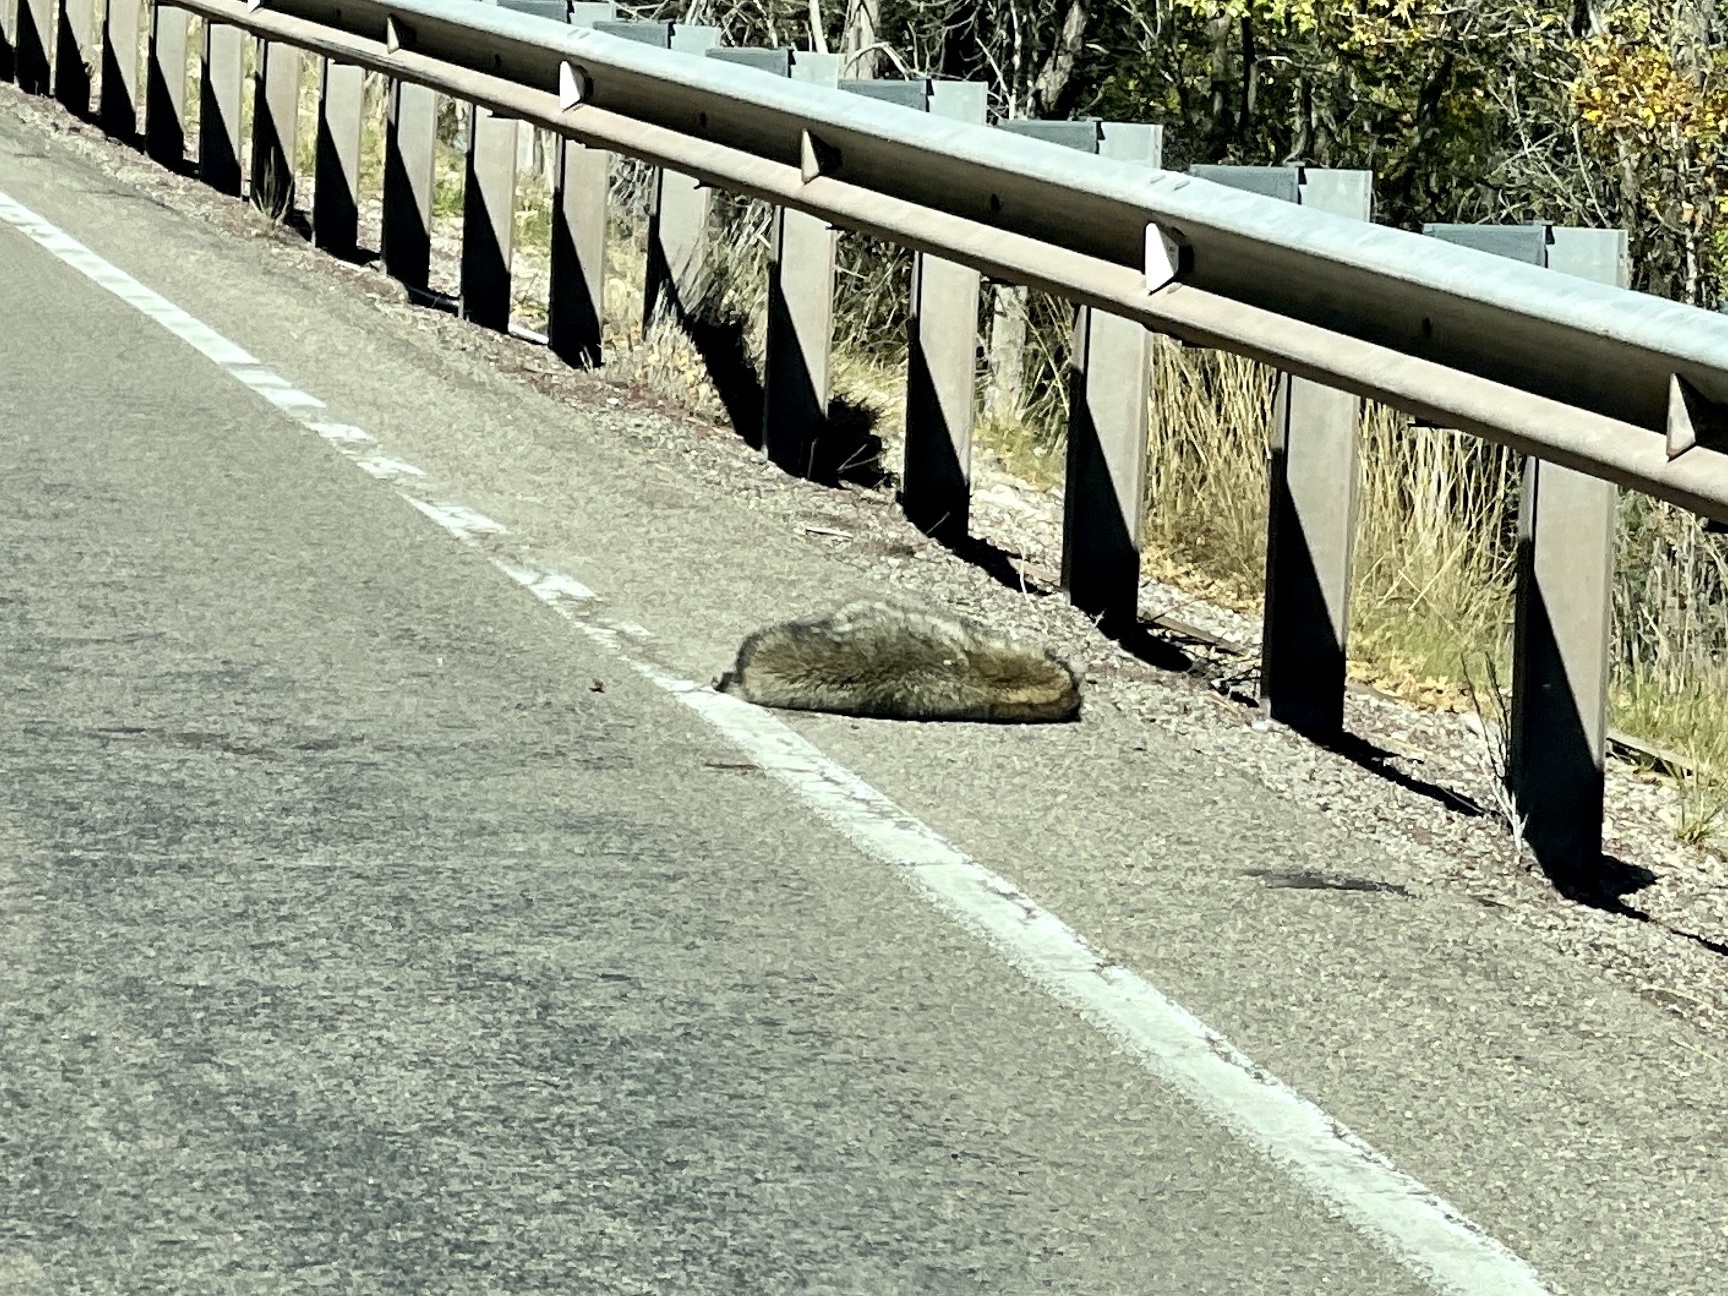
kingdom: Animalia
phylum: Chordata
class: Mammalia
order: Carnivora
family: Procyonidae
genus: Procyon
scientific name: Procyon lotor
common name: Raccoon
